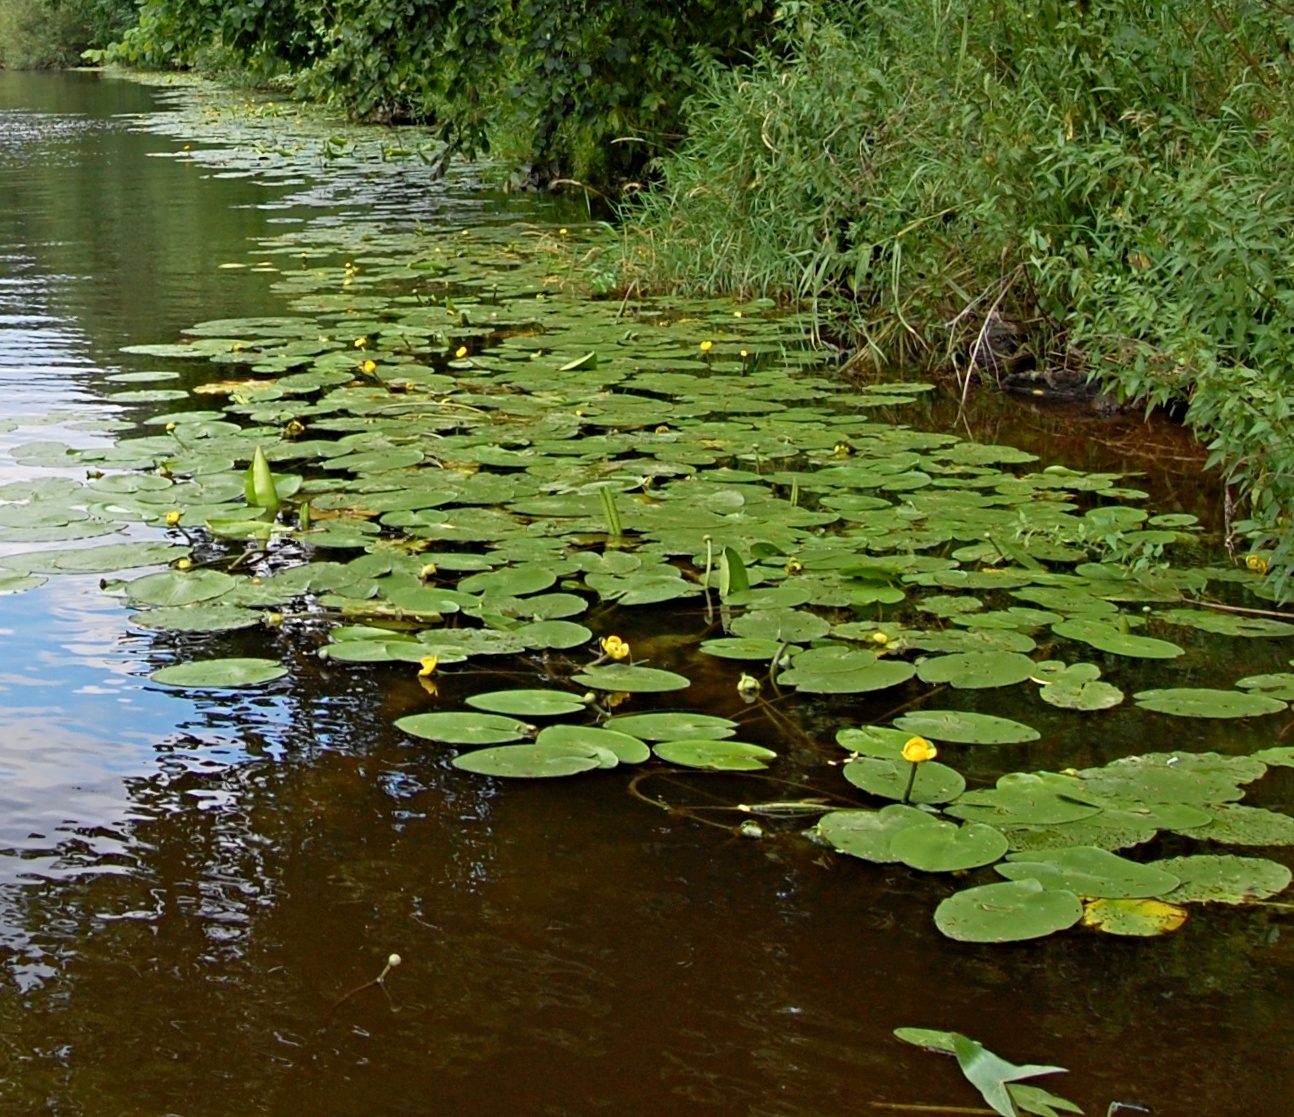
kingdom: Plantae
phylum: Tracheophyta
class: Magnoliopsida
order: Nymphaeales
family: Nymphaeaceae
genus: Nuphar
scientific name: Nuphar lutea
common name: Yellow water-lily
